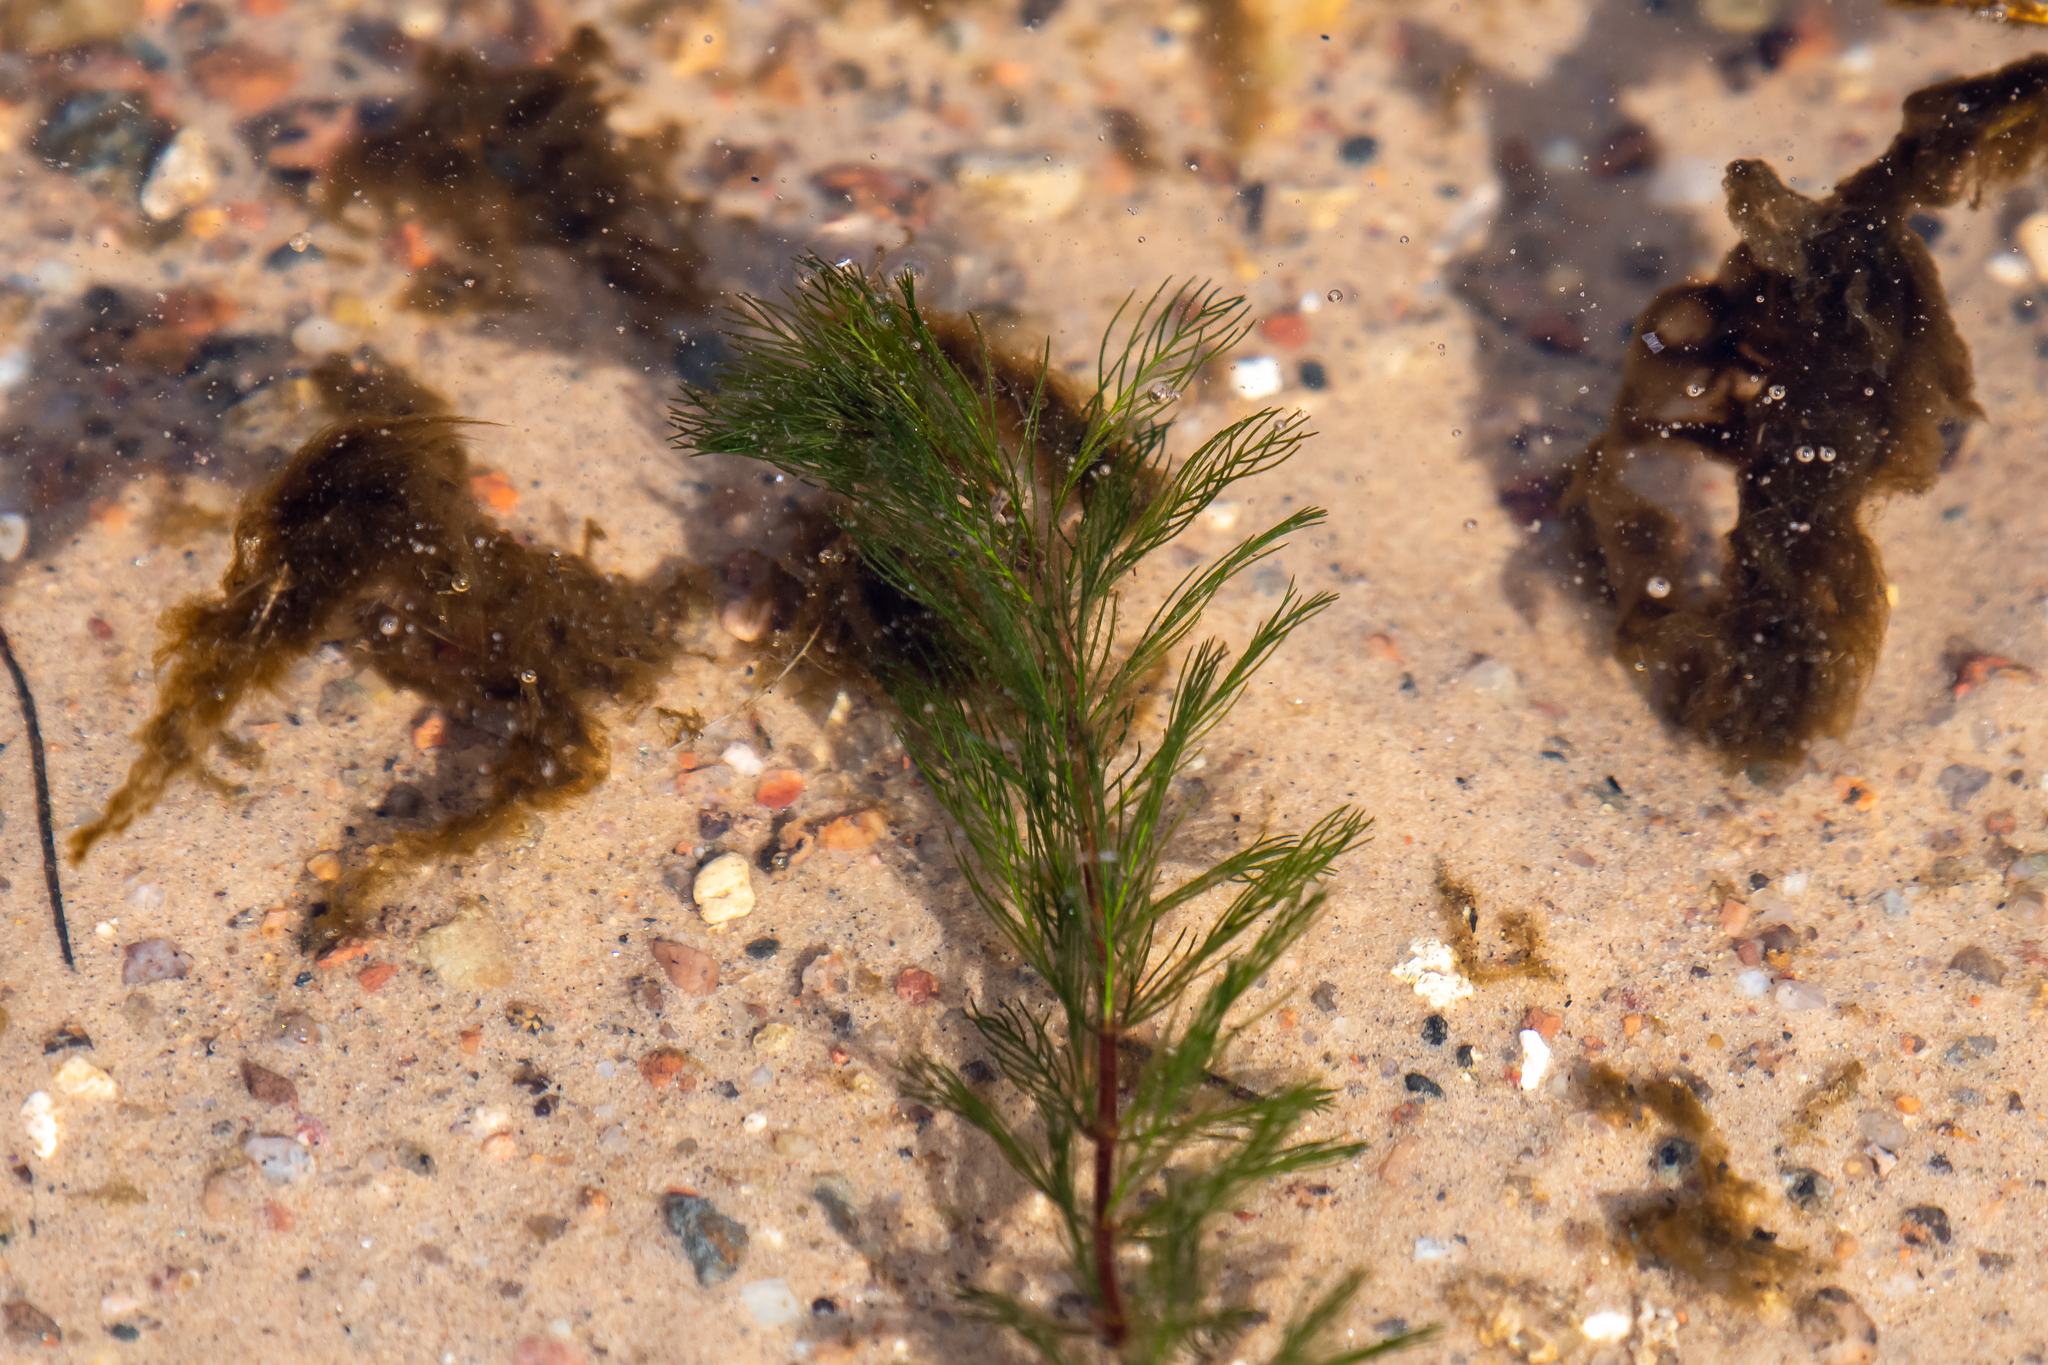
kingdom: Plantae
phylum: Tracheophyta
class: Magnoliopsida
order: Saxifragales
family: Haloragaceae
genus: Myriophyllum
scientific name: Myriophyllum spicatum
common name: Spiked water-milfoil
